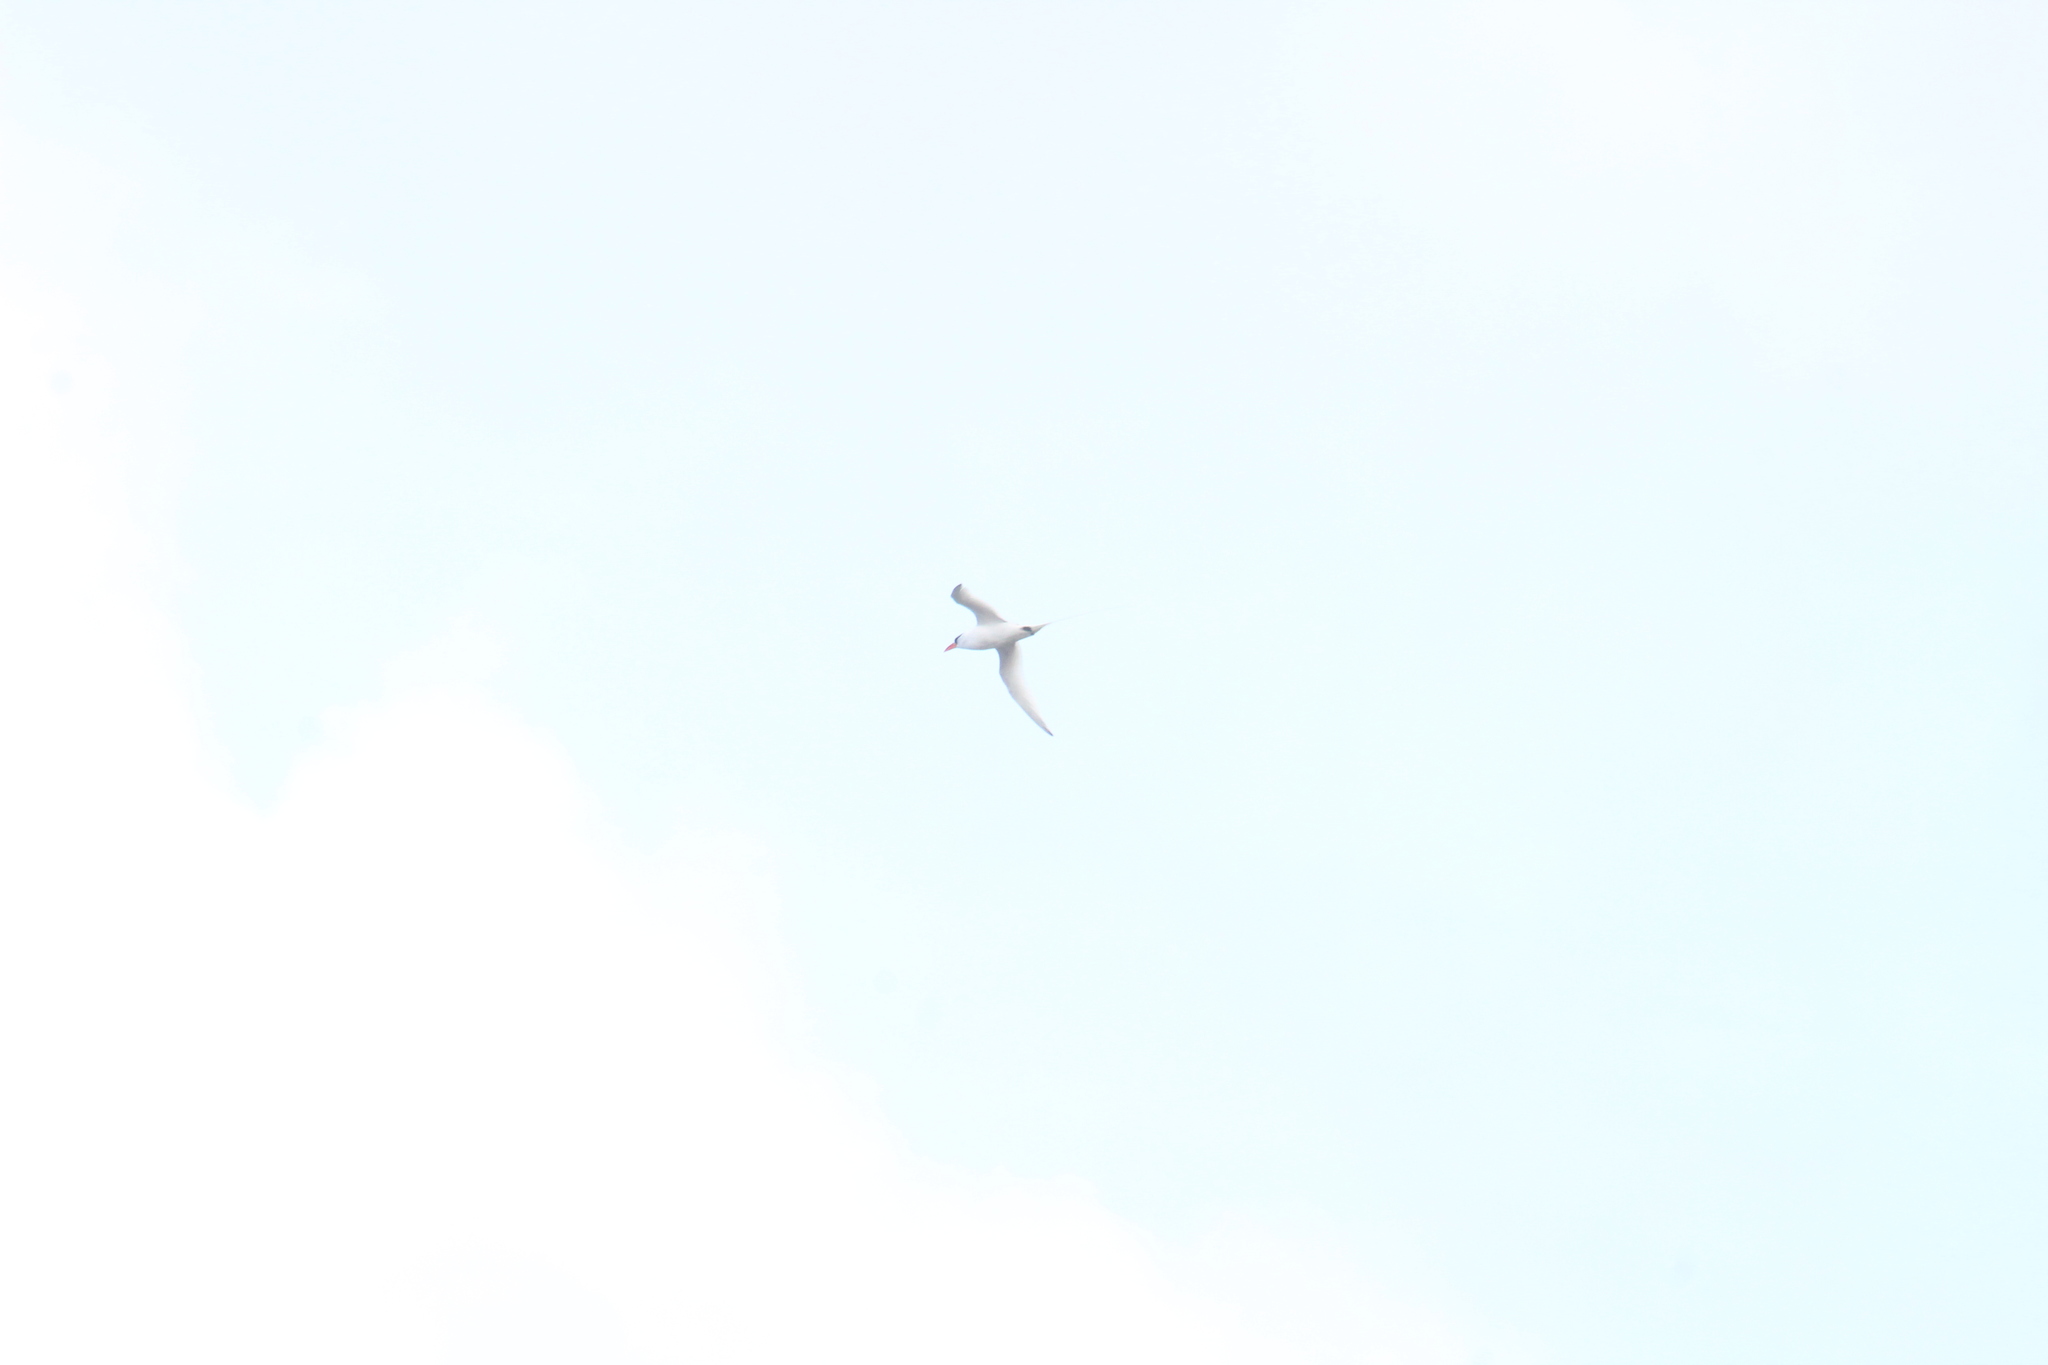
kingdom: Animalia
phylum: Chordata
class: Aves
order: Phaethontiformes
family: Phaethontidae
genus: Phaethon
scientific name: Phaethon aethereus
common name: Red-billed tropicbird
